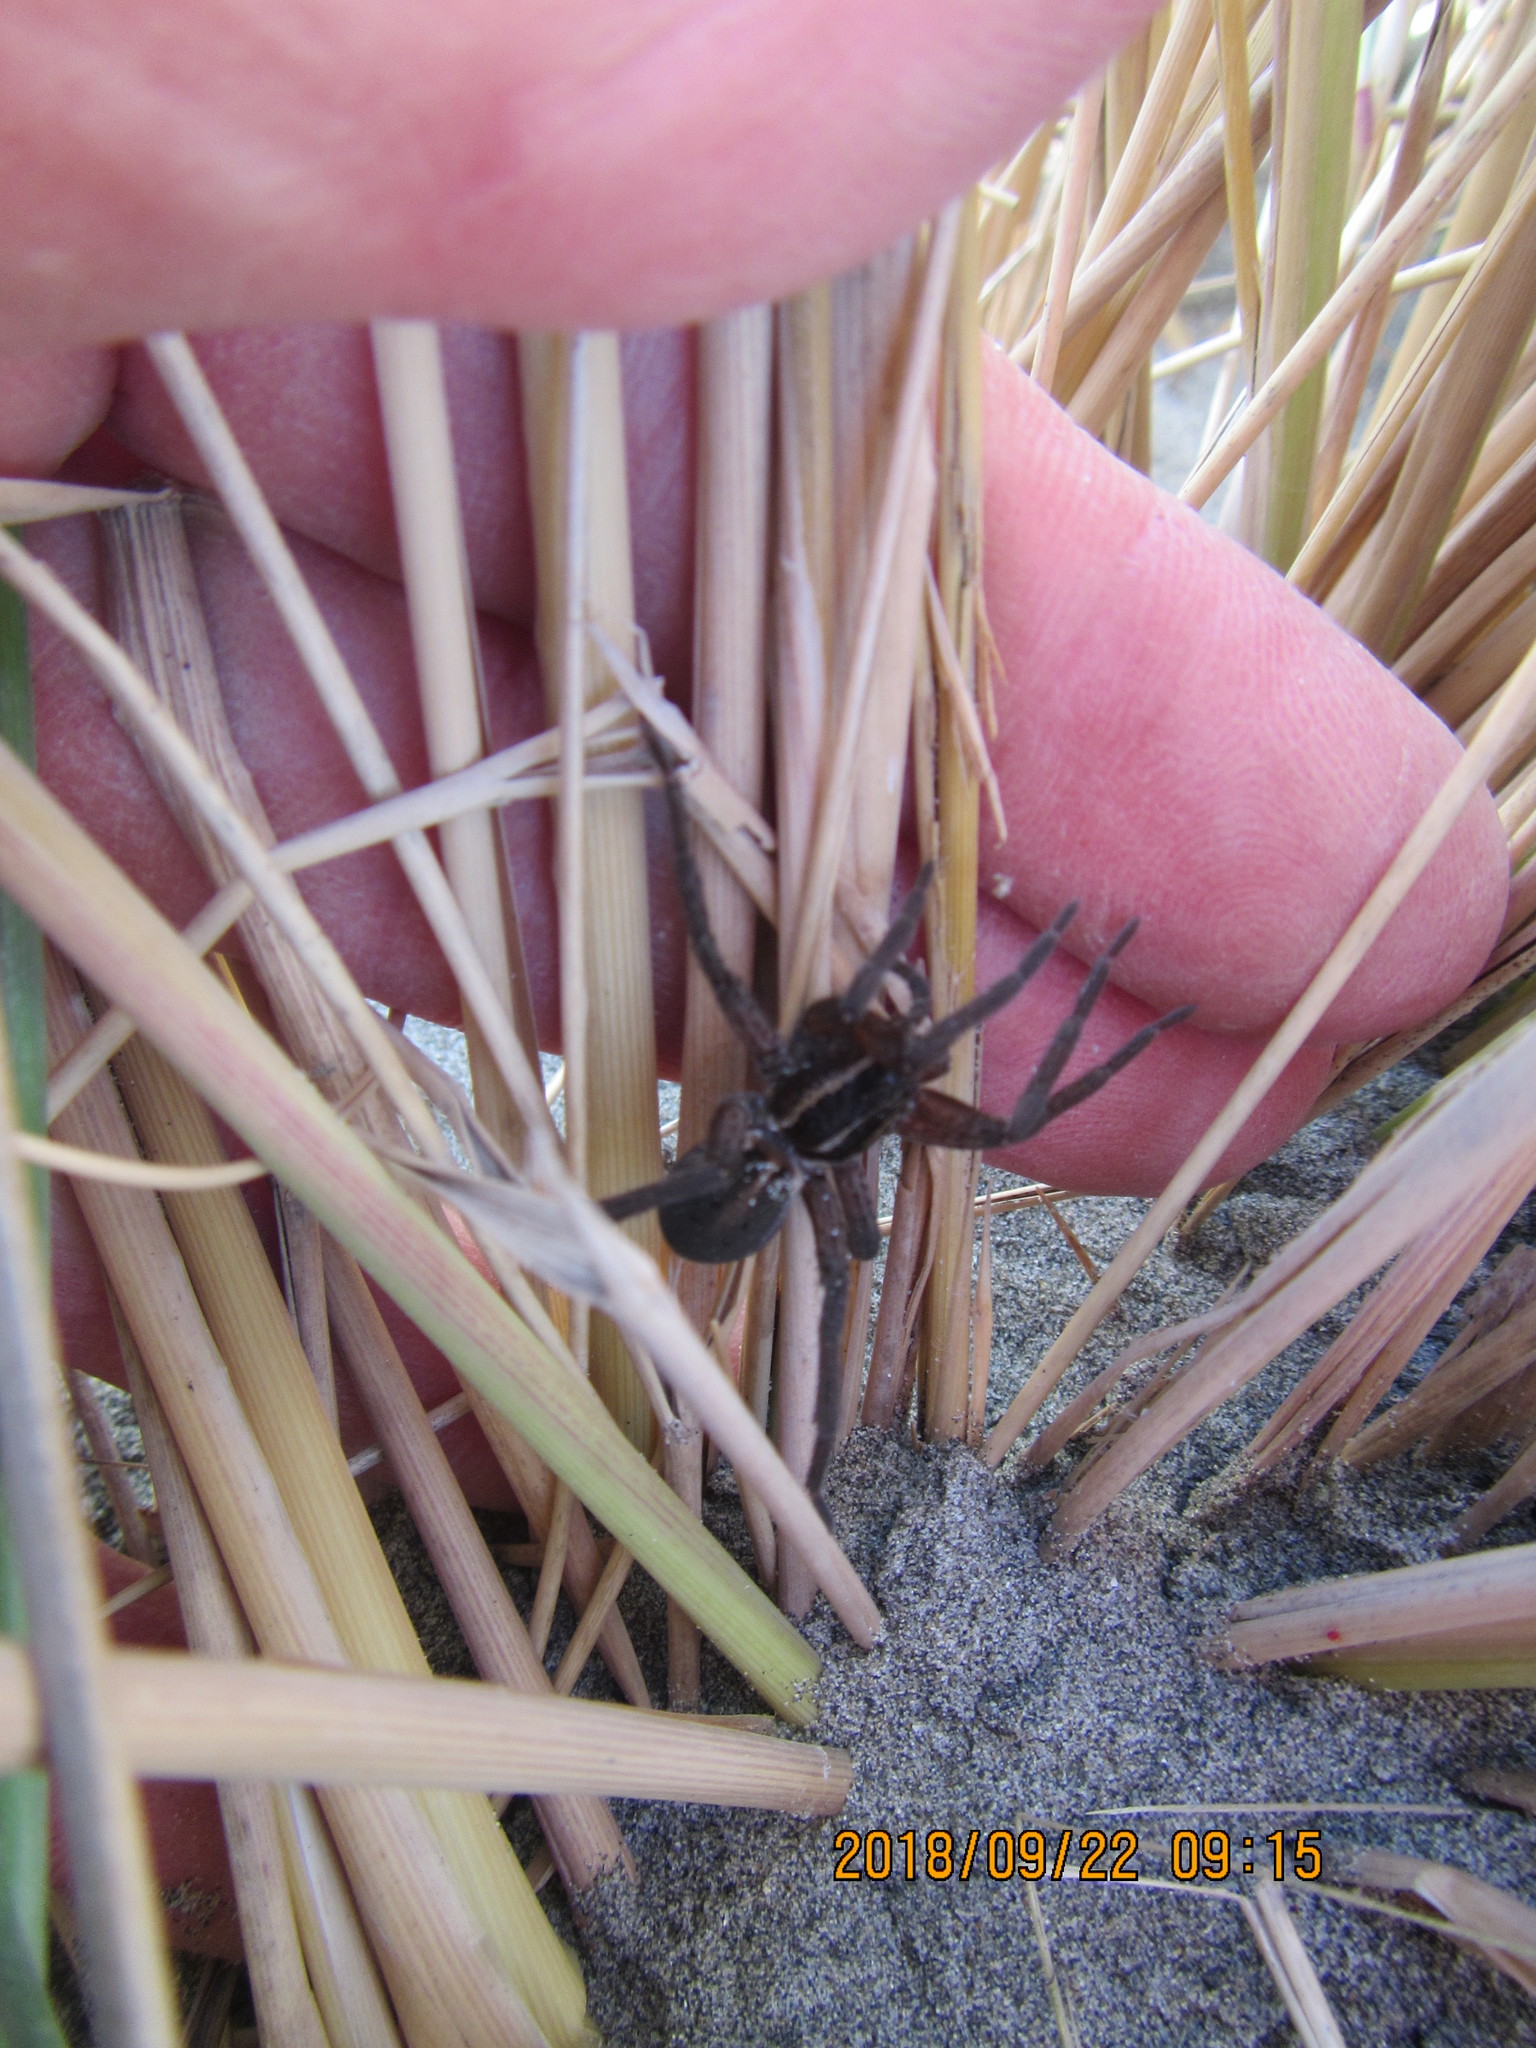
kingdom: Animalia
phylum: Arthropoda
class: Arachnida
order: Araneae
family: Pisauridae
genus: Dolomedes
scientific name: Dolomedes minor
